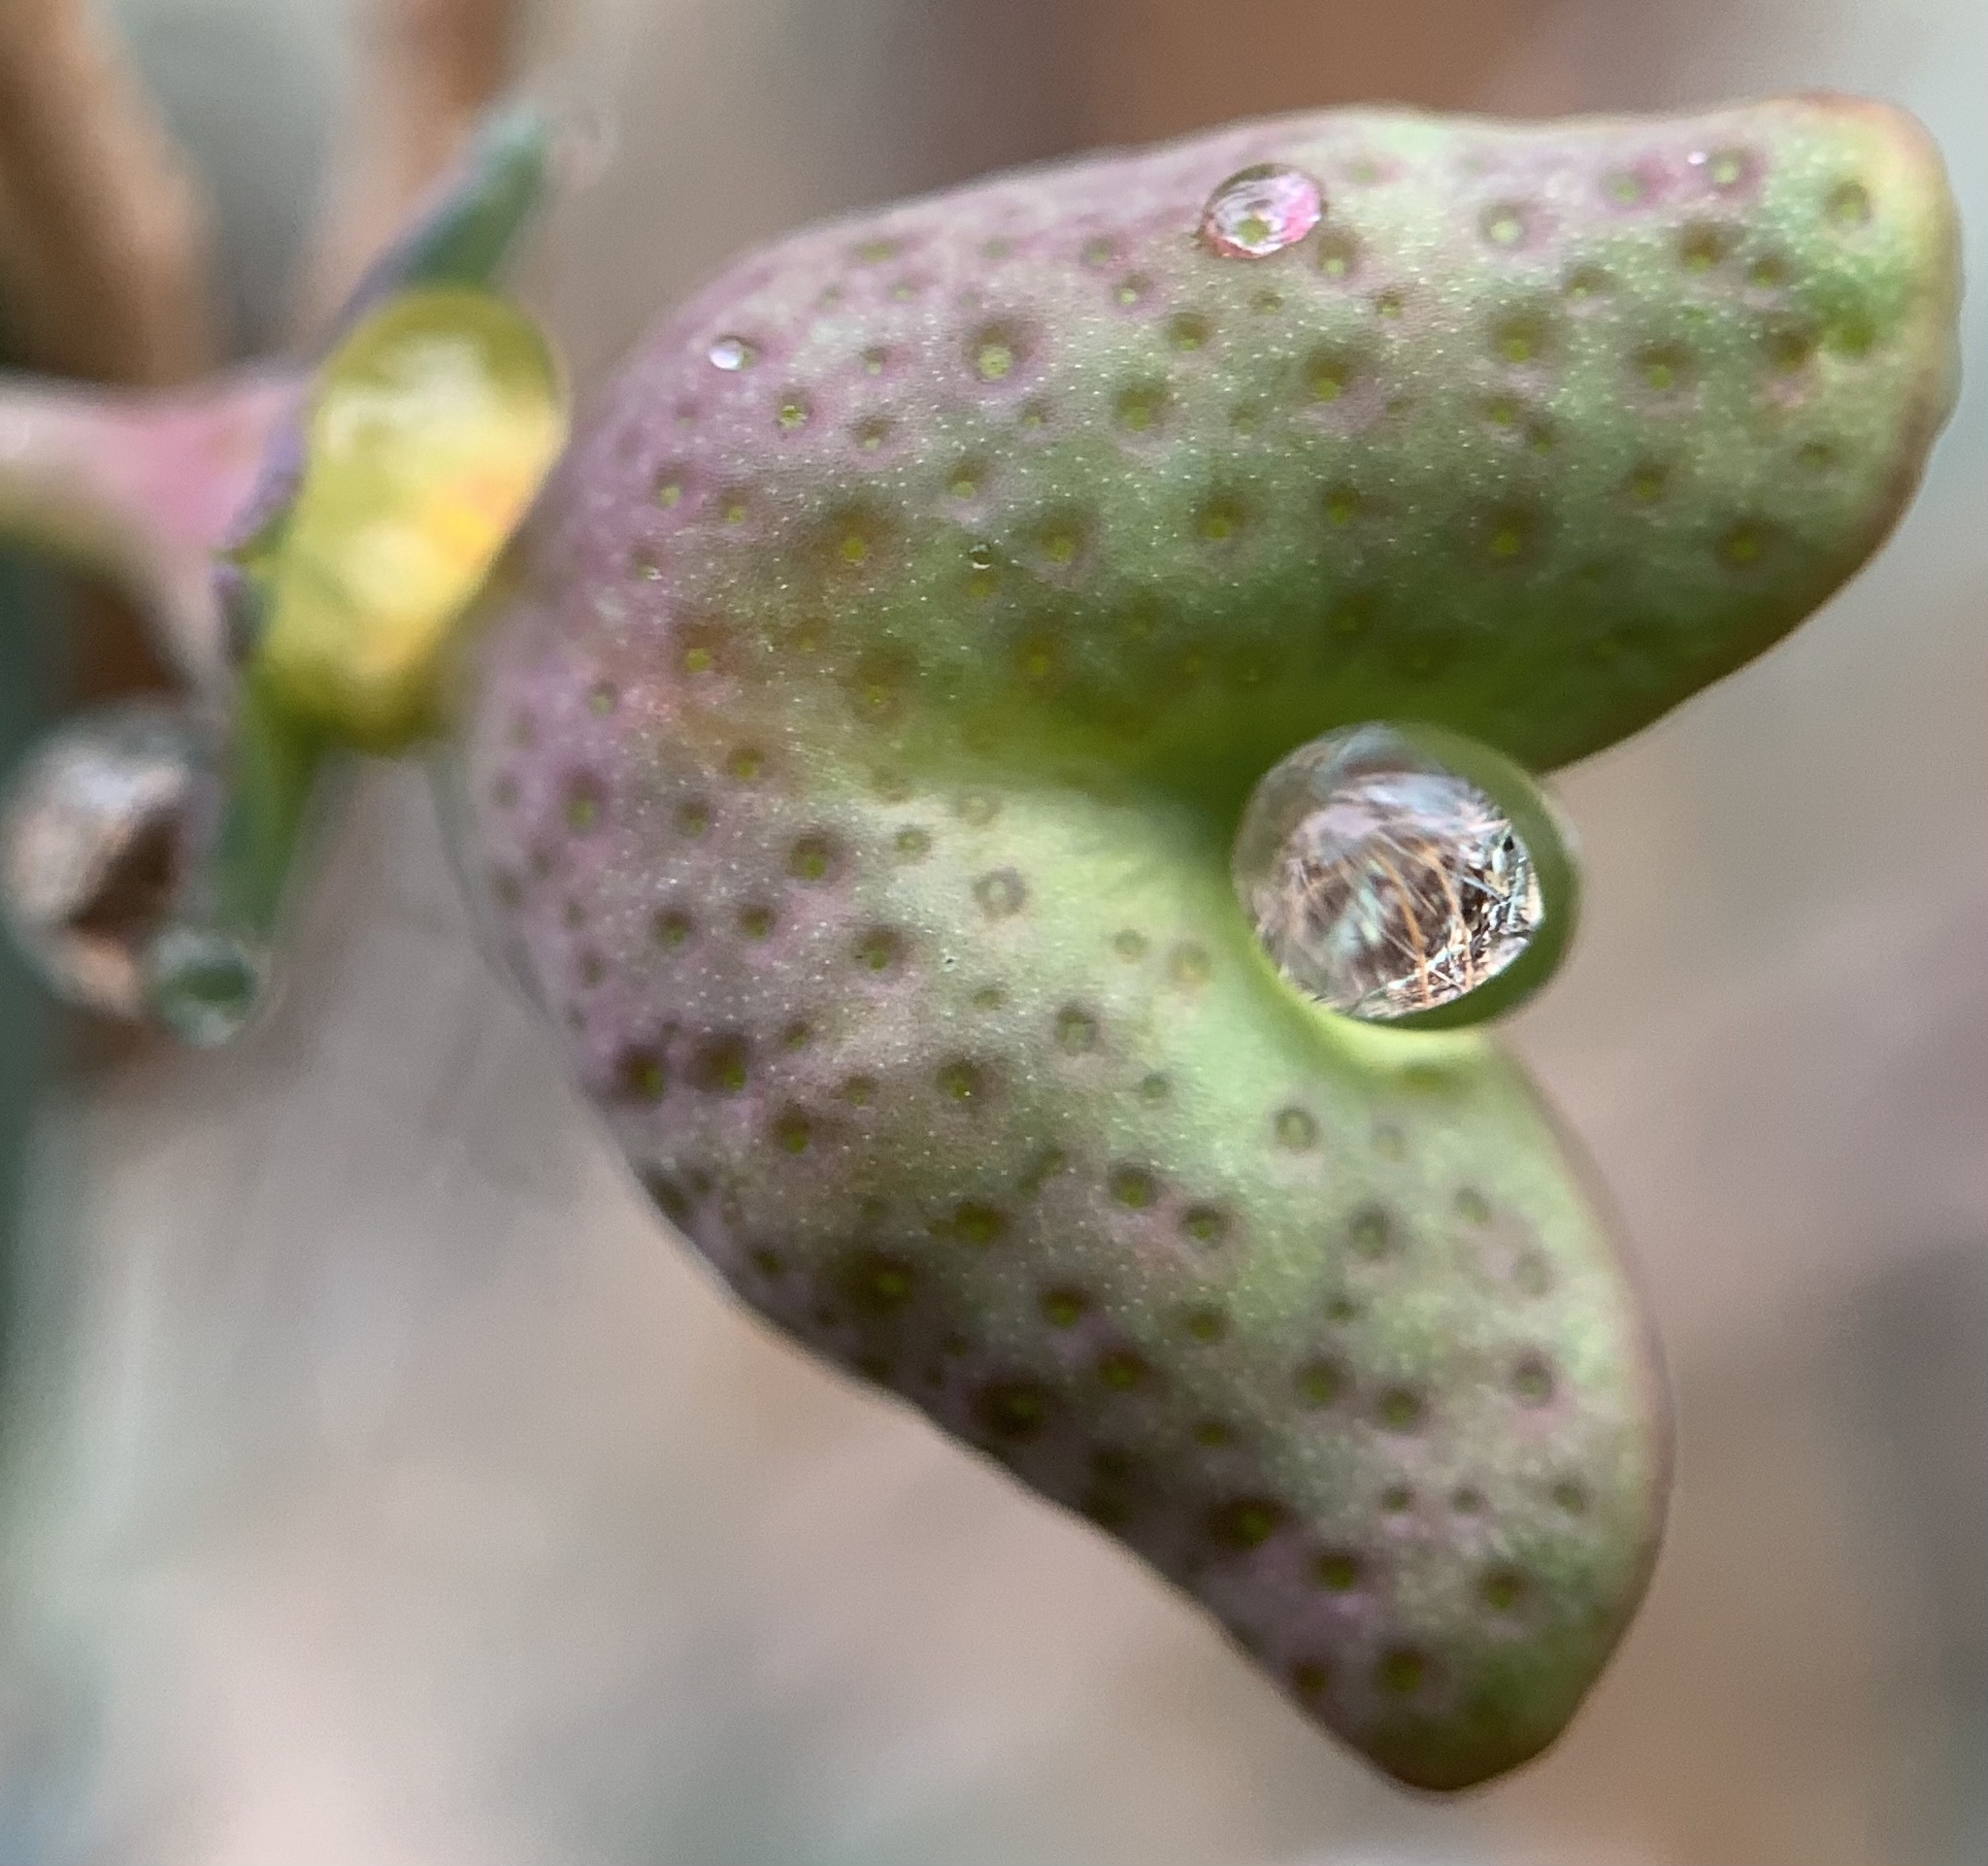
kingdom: Plantae
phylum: Tracheophyta
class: Magnoliopsida
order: Sapindales
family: Rutaceae
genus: Thamnosma
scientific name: Thamnosma texana
